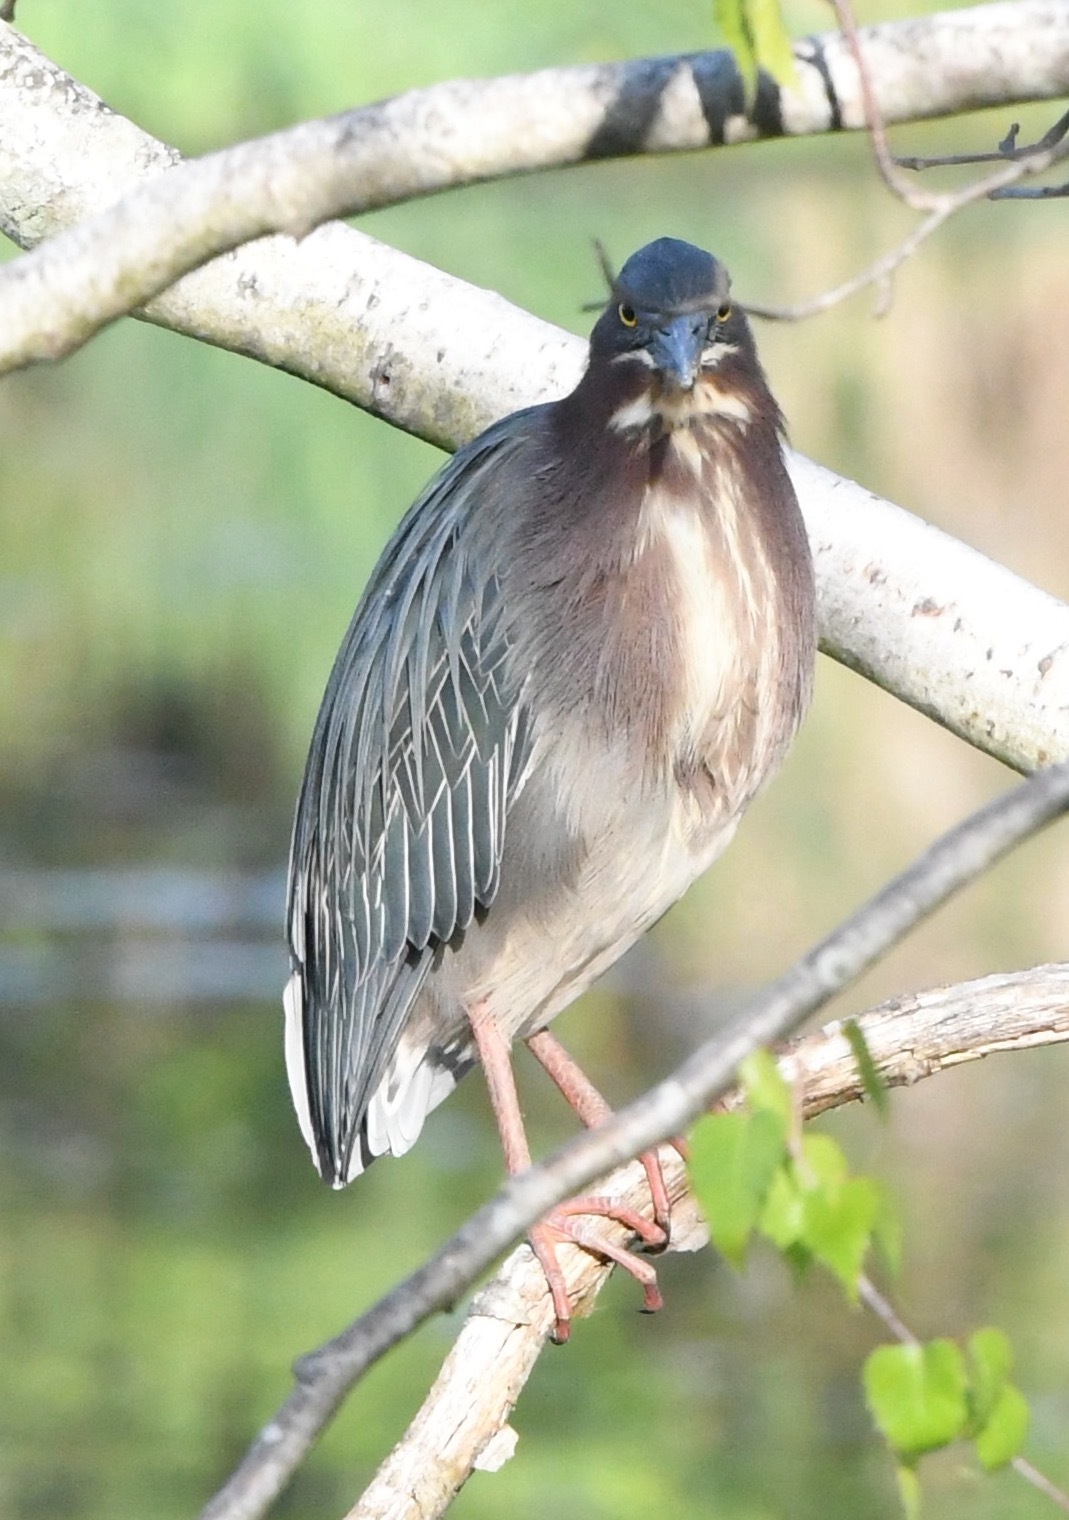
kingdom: Animalia
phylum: Chordata
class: Aves
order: Pelecaniformes
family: Ardeidae
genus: Butorides
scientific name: Butorides virescens
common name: Green heron
